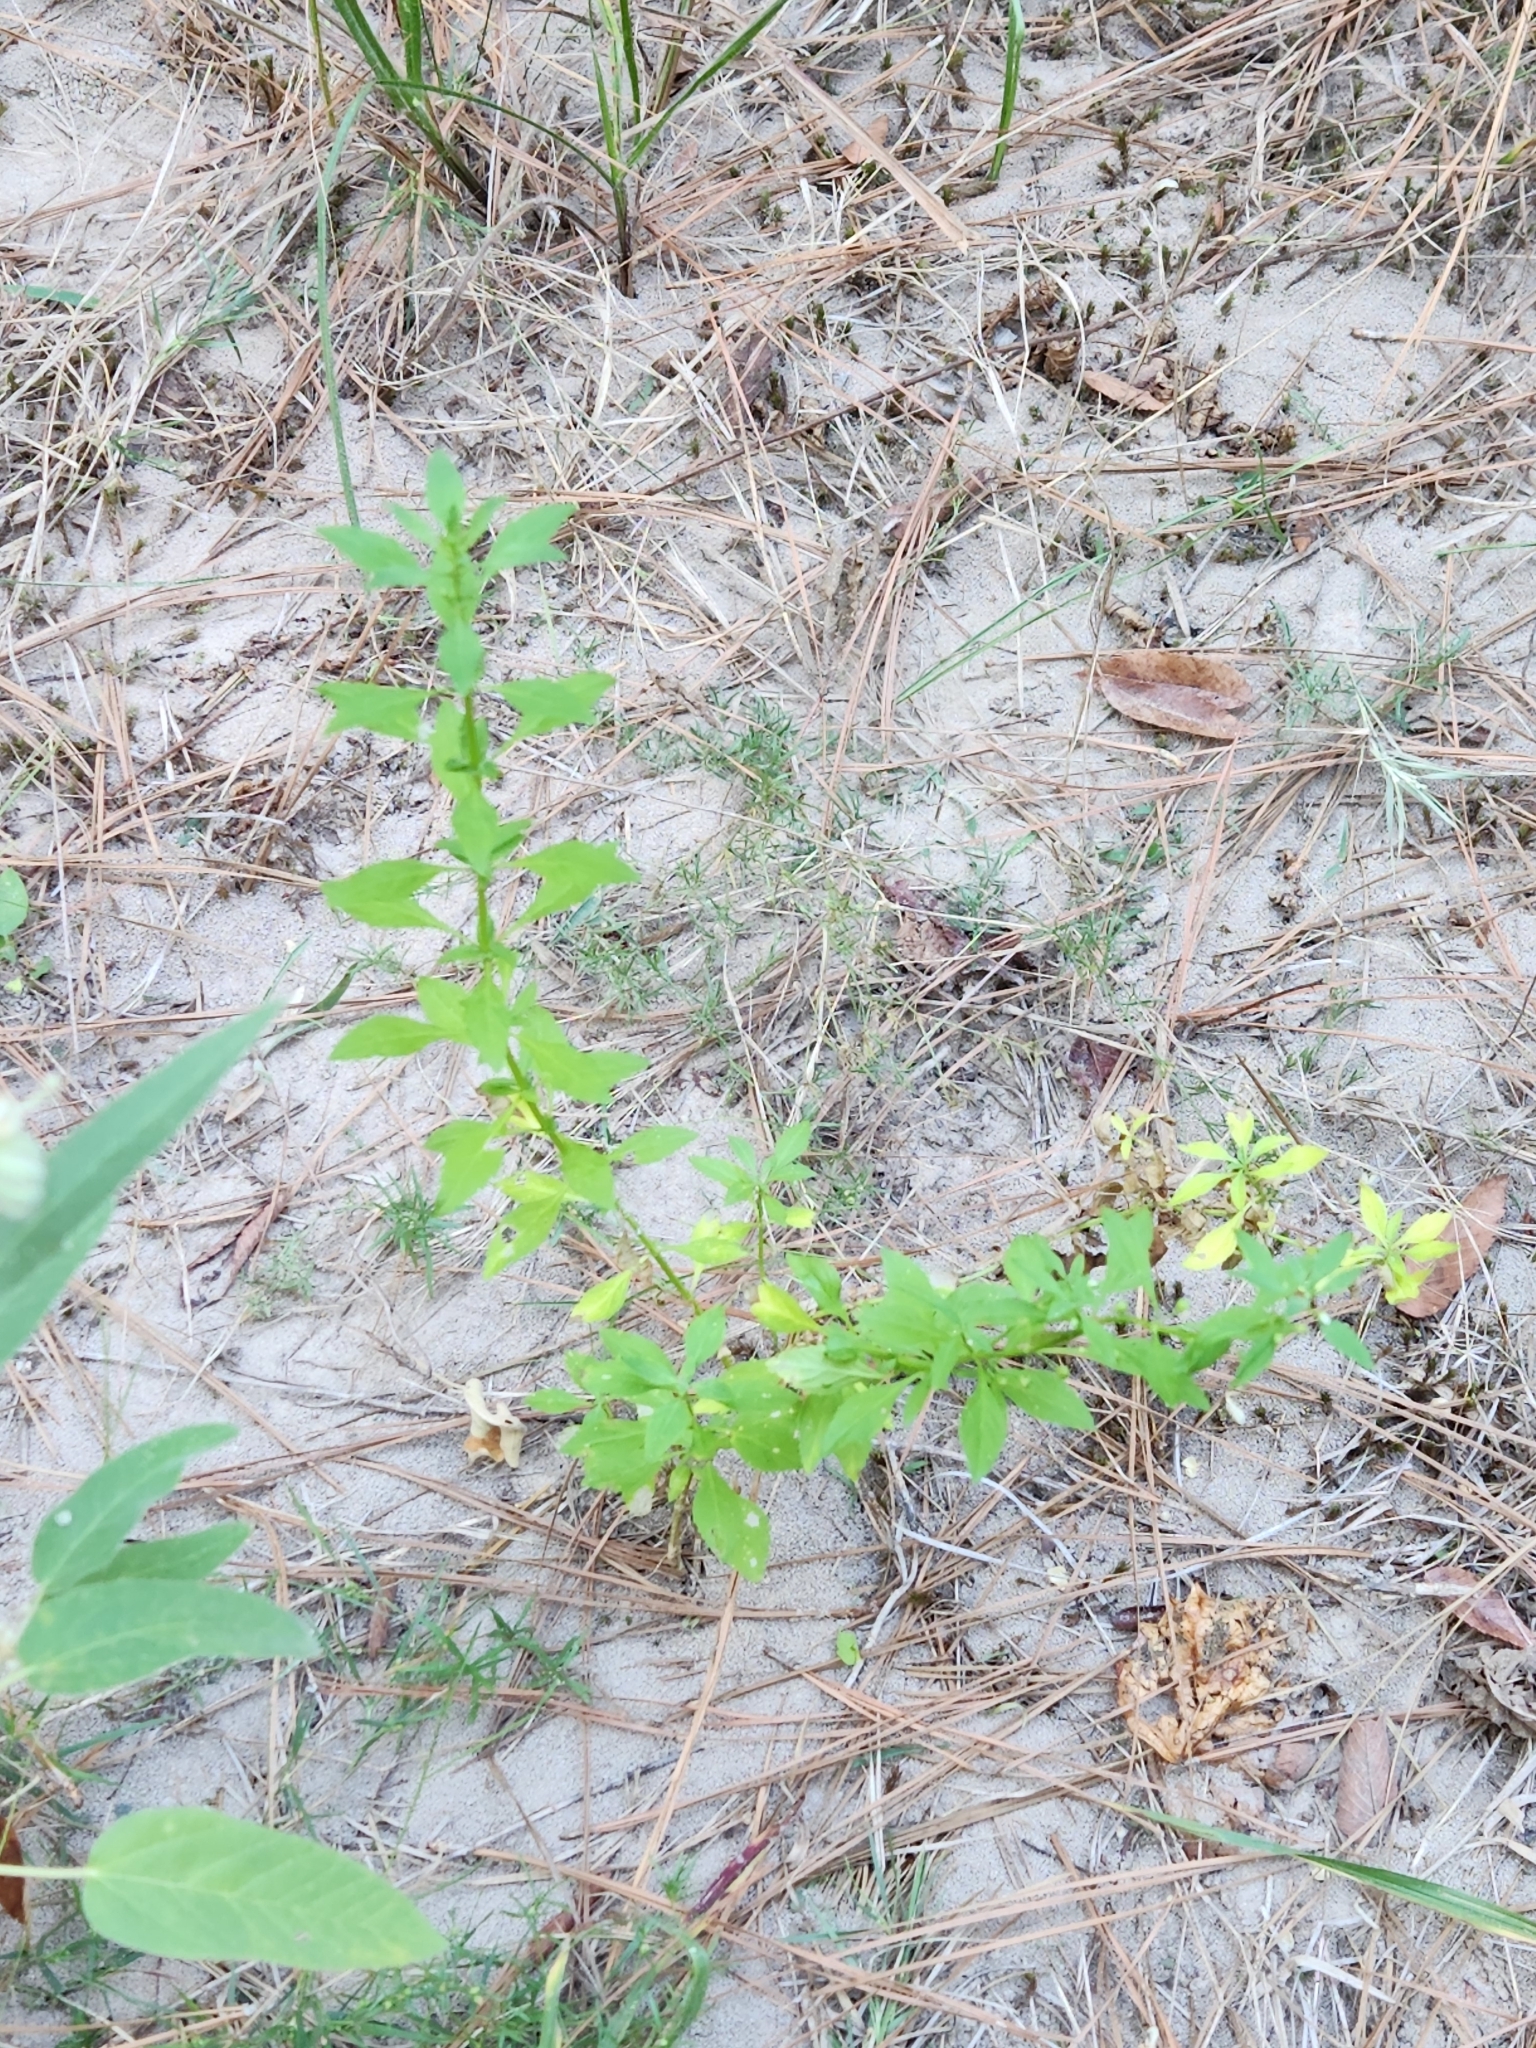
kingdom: Plantae
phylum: Tracheophyta
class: Magnoliopsida
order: Lamiales
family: Plantaginaceae
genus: Scoparia
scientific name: Scoparia dulcis
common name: Scoparia-weed
